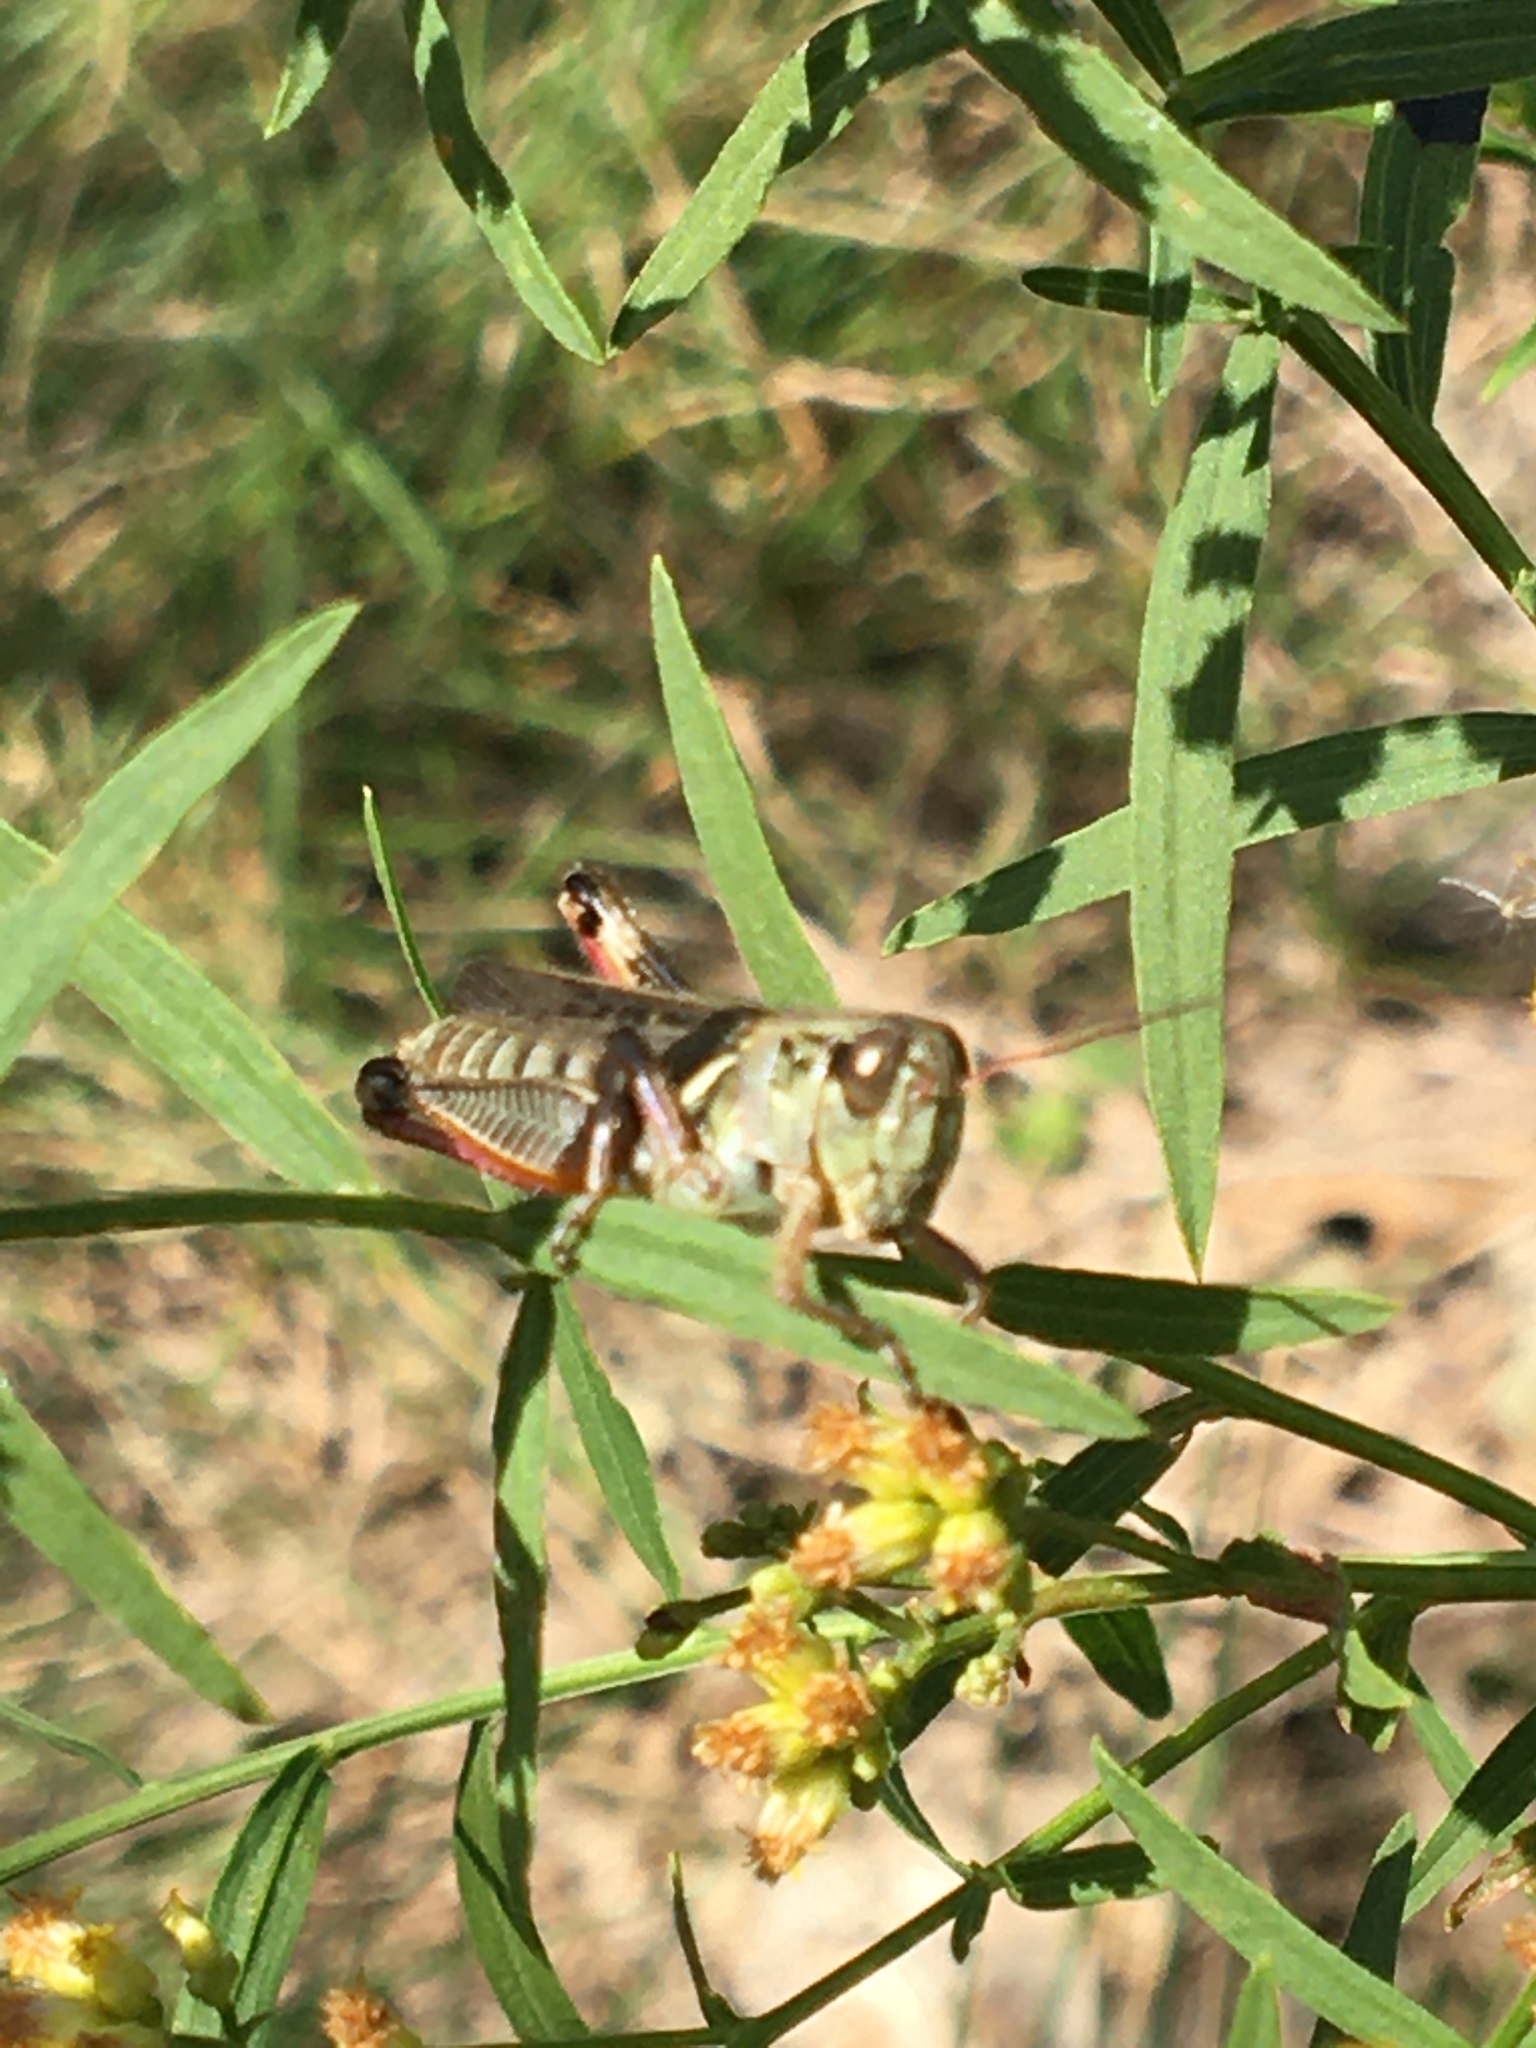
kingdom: Animalia
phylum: Arthropoda
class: Insecta
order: Orthoptera
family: Acrididae
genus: Melanoplus
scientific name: Melanoplus
